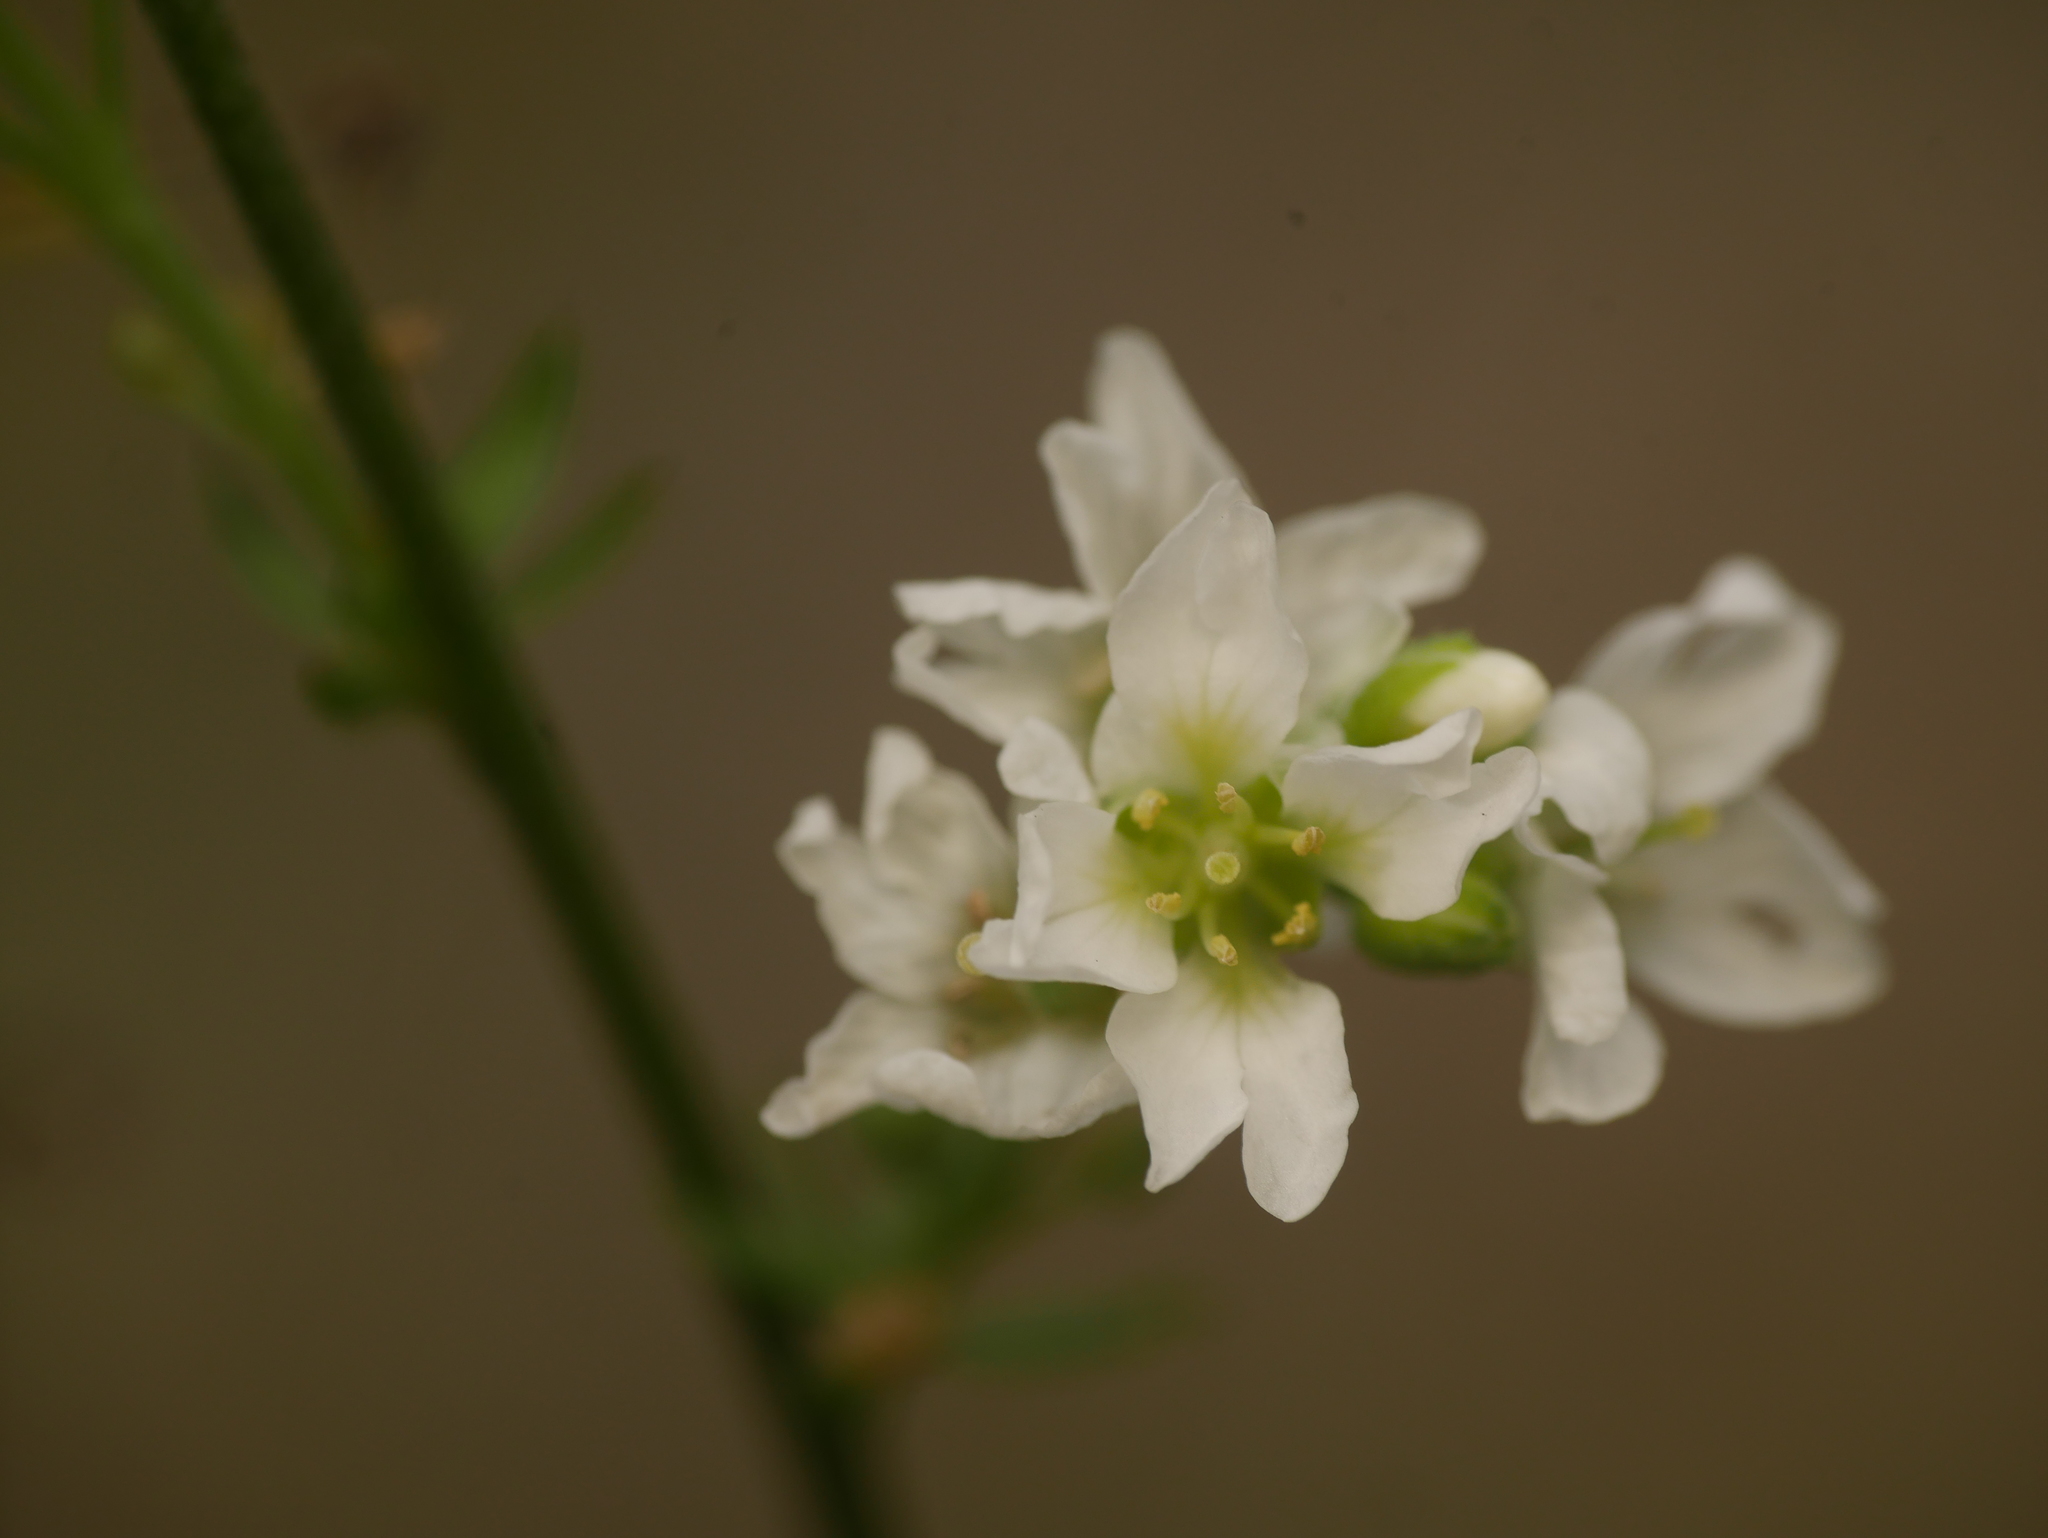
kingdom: Plantae
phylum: Tracheophyta
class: Magnoliopsida
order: Brassicales
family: Brassicaceae
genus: Berteroa
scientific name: Berteroa incana
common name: Hoary alison
